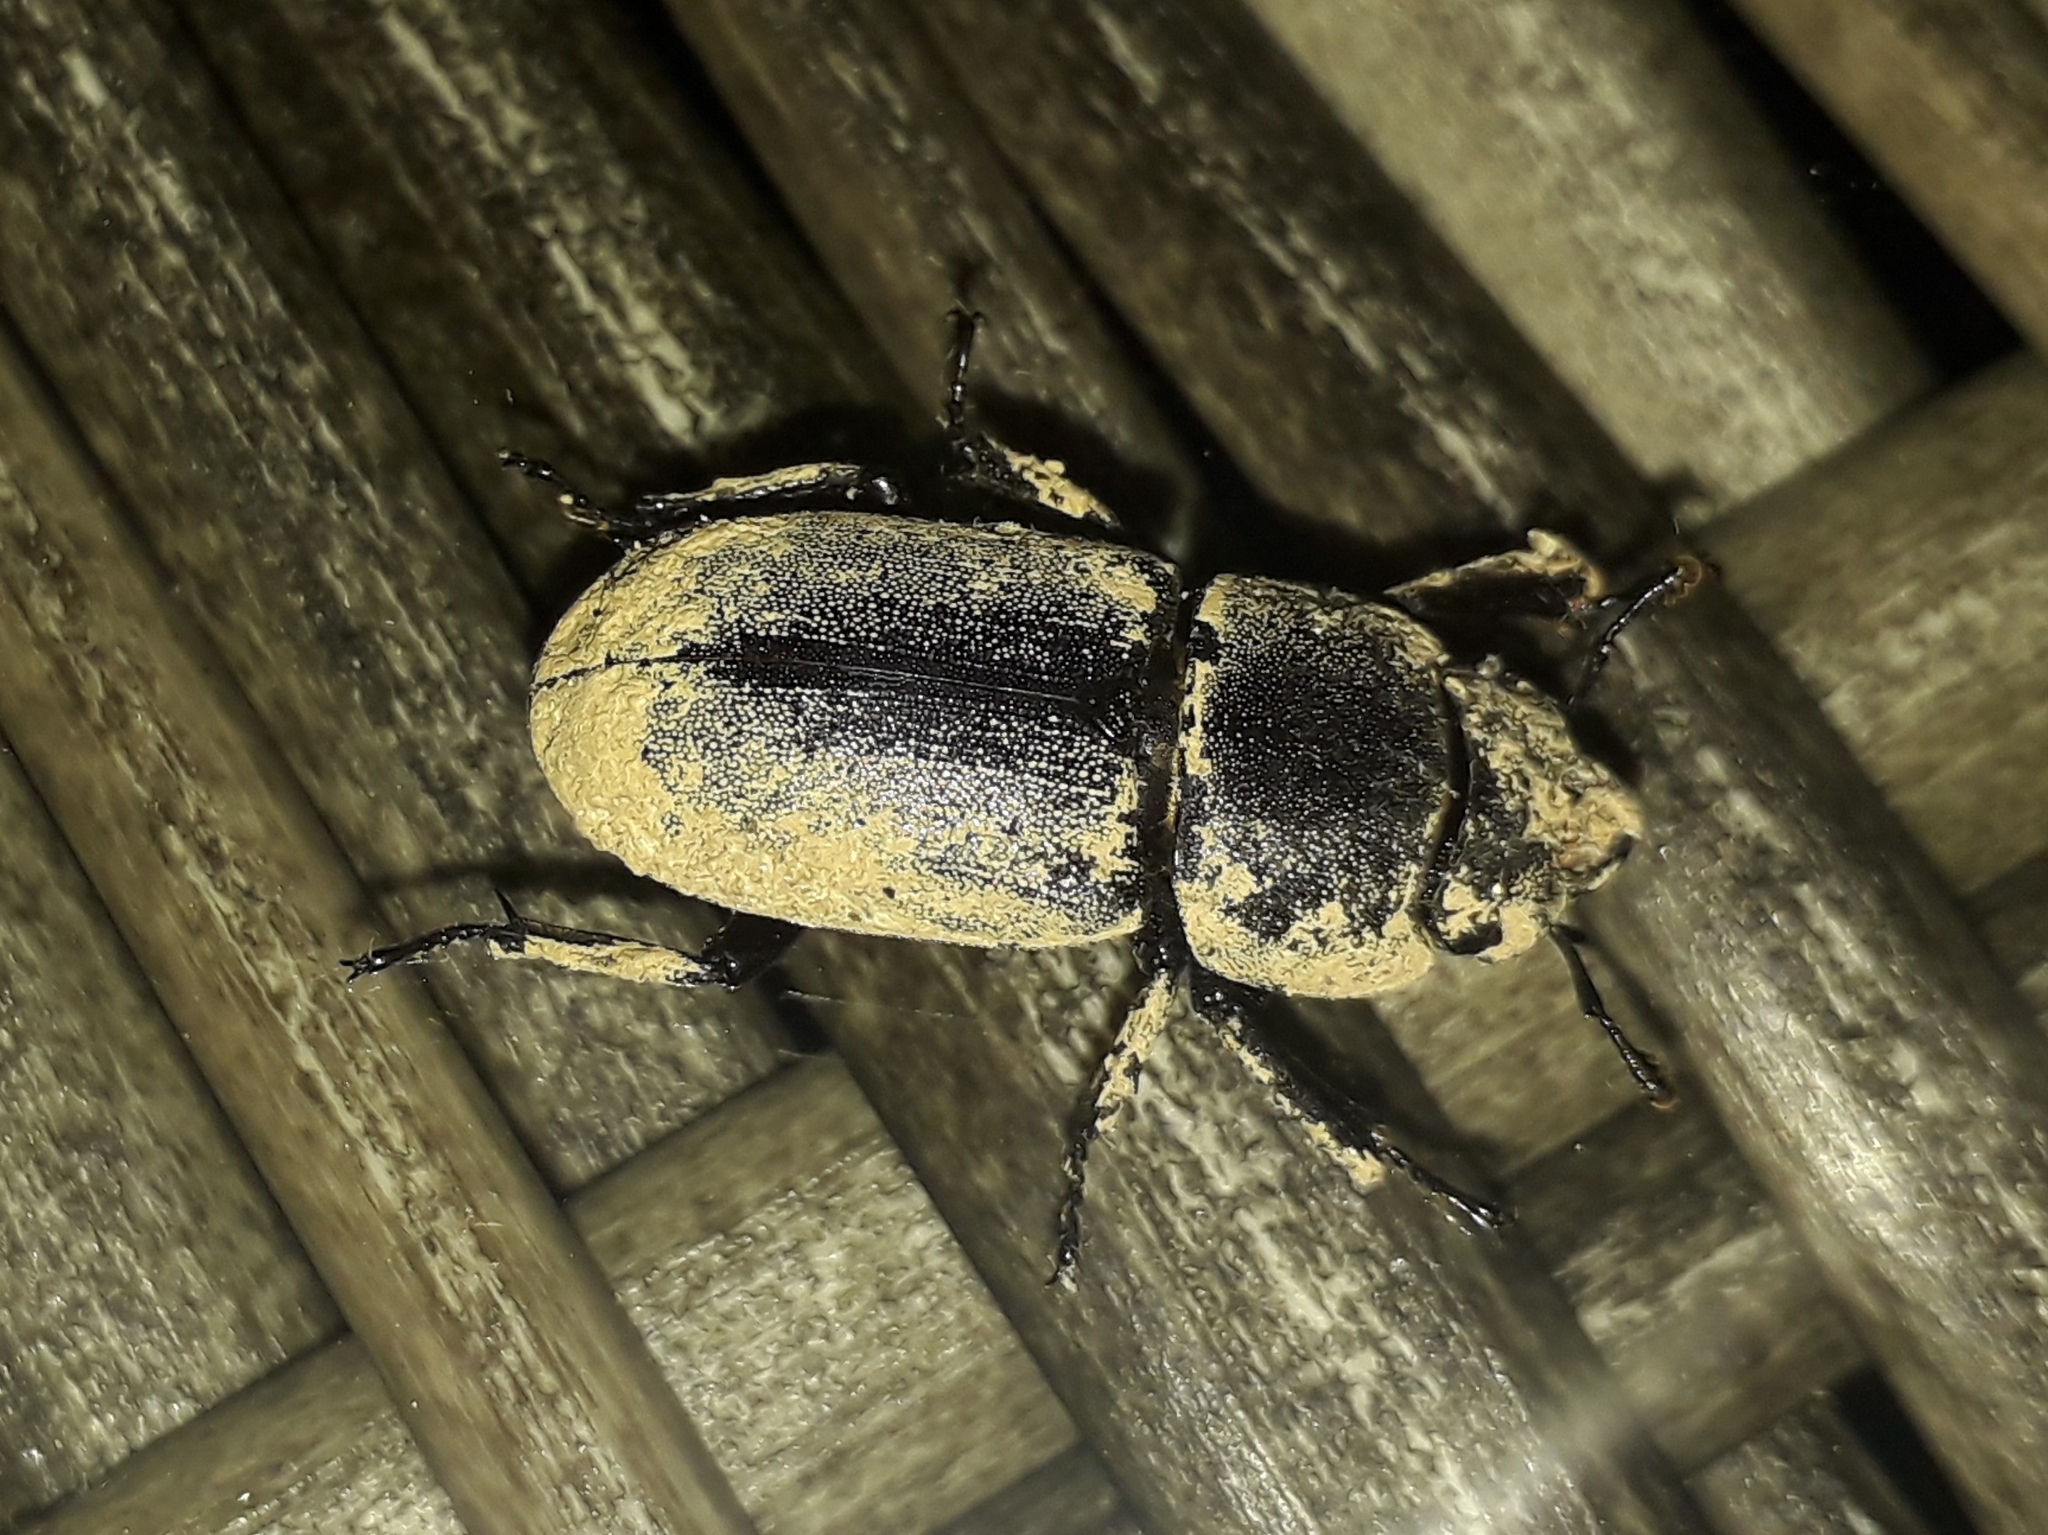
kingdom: Animalia
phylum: Arthropoda
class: Insecta
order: Coleoptera
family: Lucanidae
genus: Dorcus
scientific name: Dorcus parallelipipedus
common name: Lesser stag beetle
